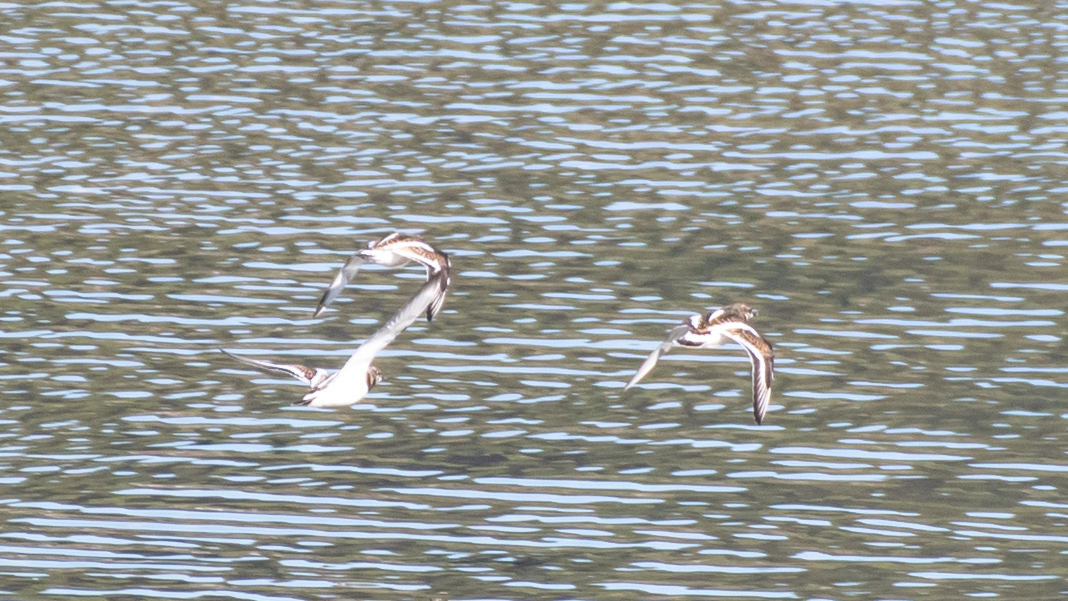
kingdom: Animalia
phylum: Chordata
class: Aves
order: Charadriiformes
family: Scolopacidae
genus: Arenaria
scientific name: Arenaria interpres
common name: Ruddy turnstone
